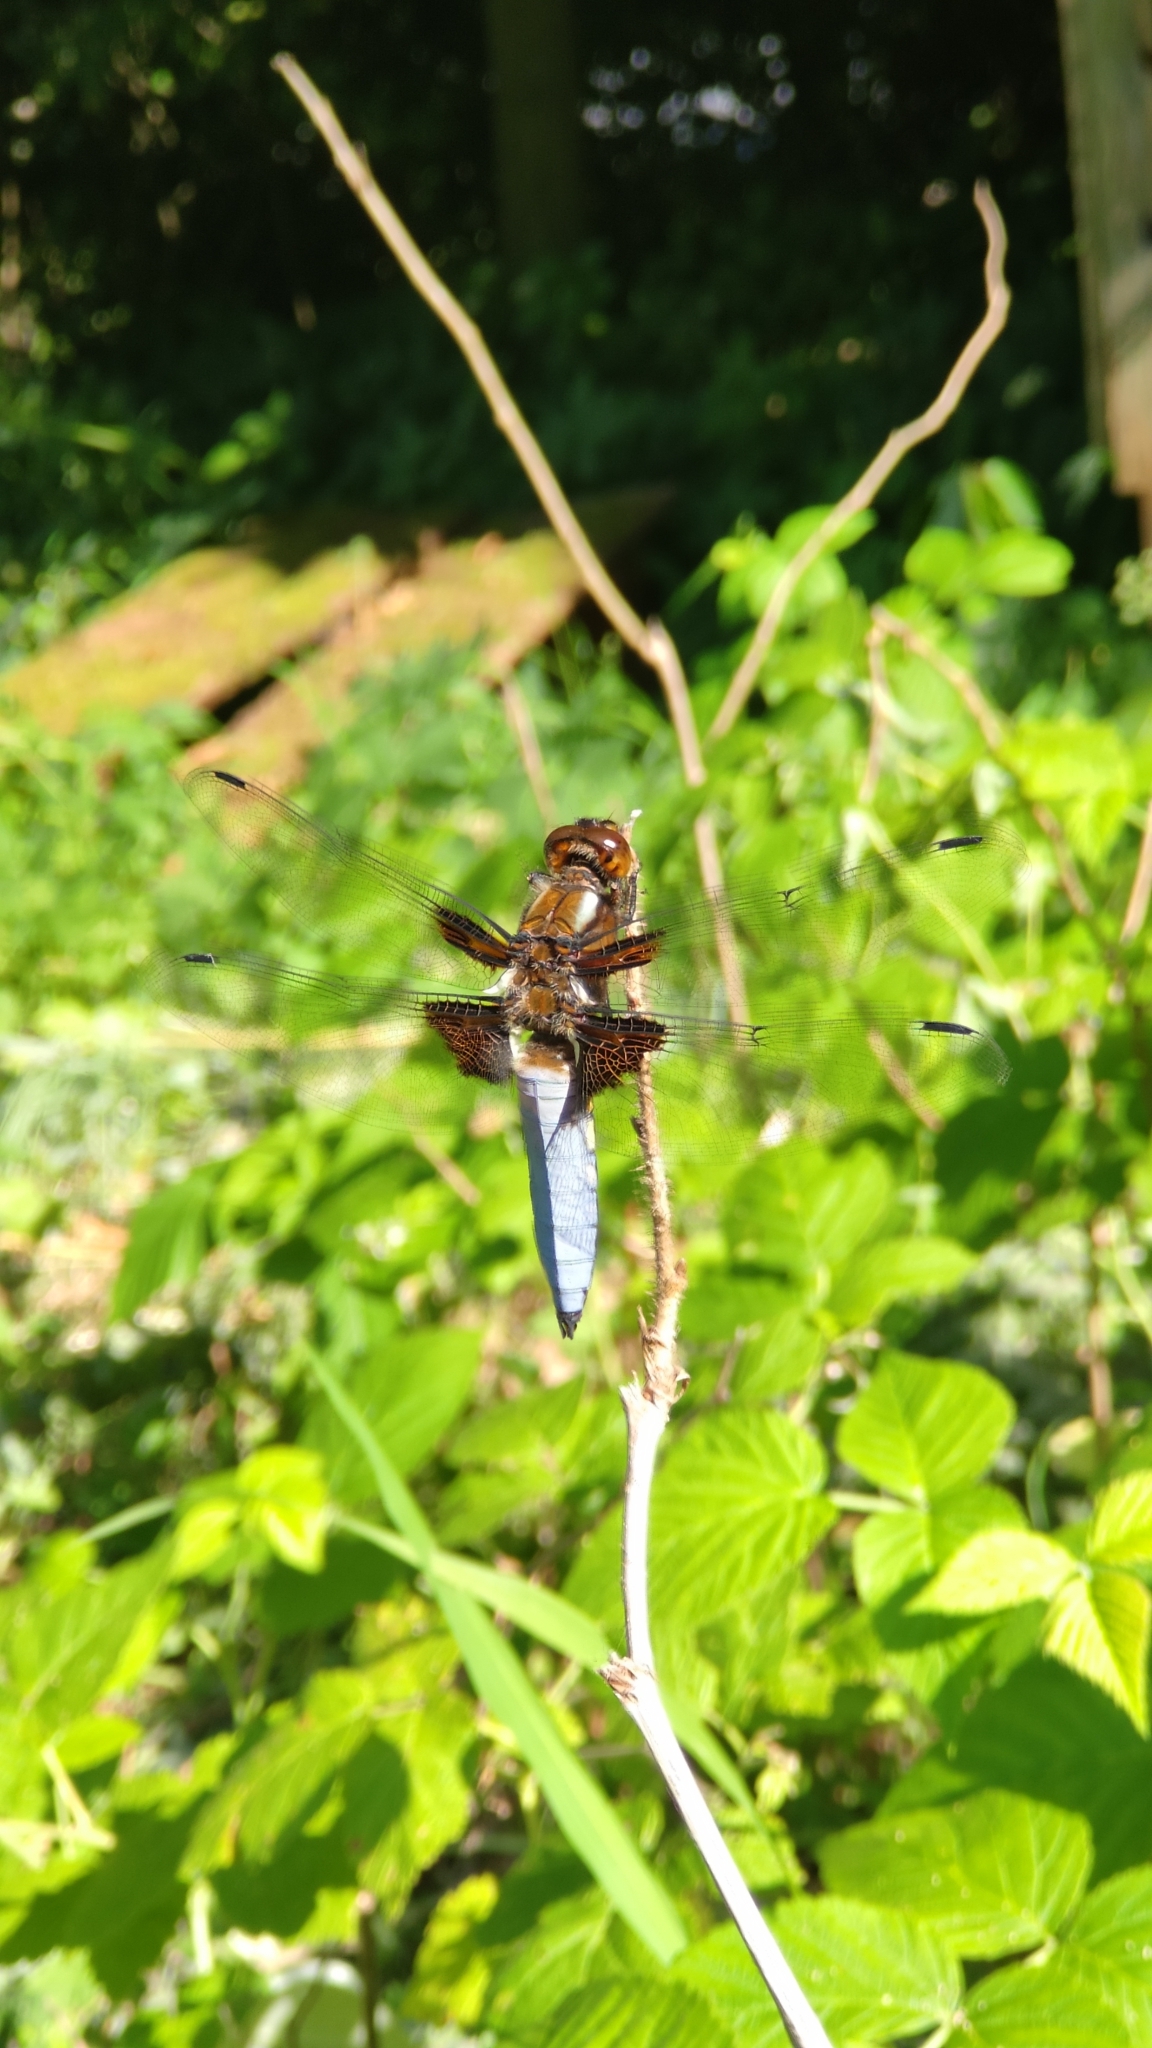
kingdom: Animalia
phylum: Arthropoda
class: Insecta
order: Odonata
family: Libellulidae
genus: Libellula
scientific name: Libellula depressa
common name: Broad-bodied chaser
